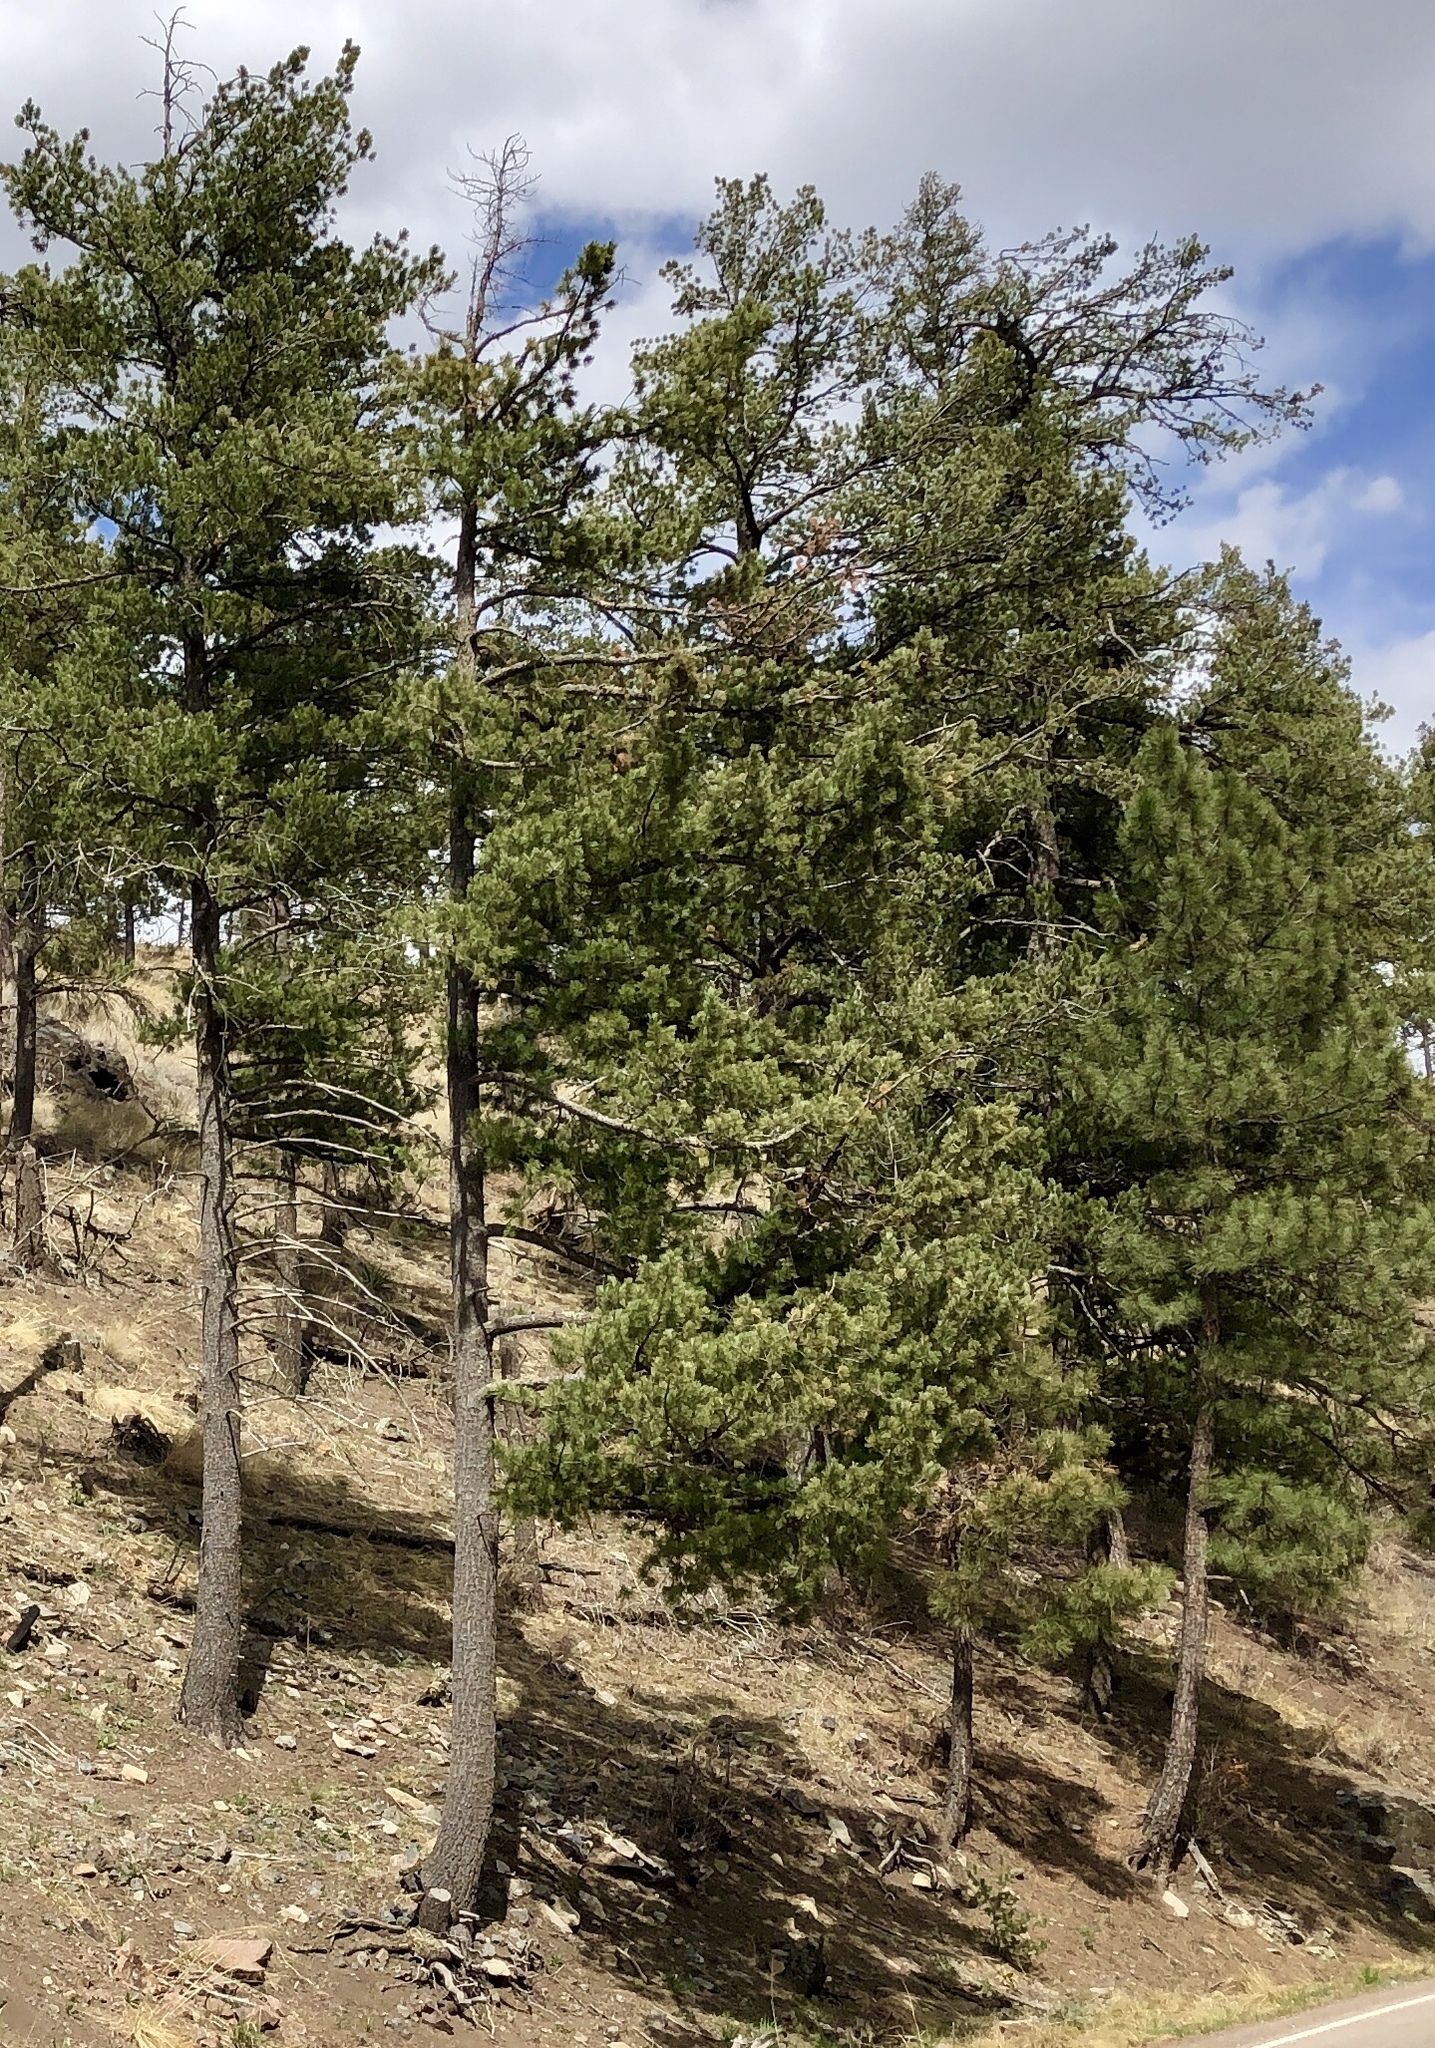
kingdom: Plantae
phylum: Tracheophyta
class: Pinopsida
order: Pinales
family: Pinaceae
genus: Pinus
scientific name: Pinus ponderosa
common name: Western yellow-pine
